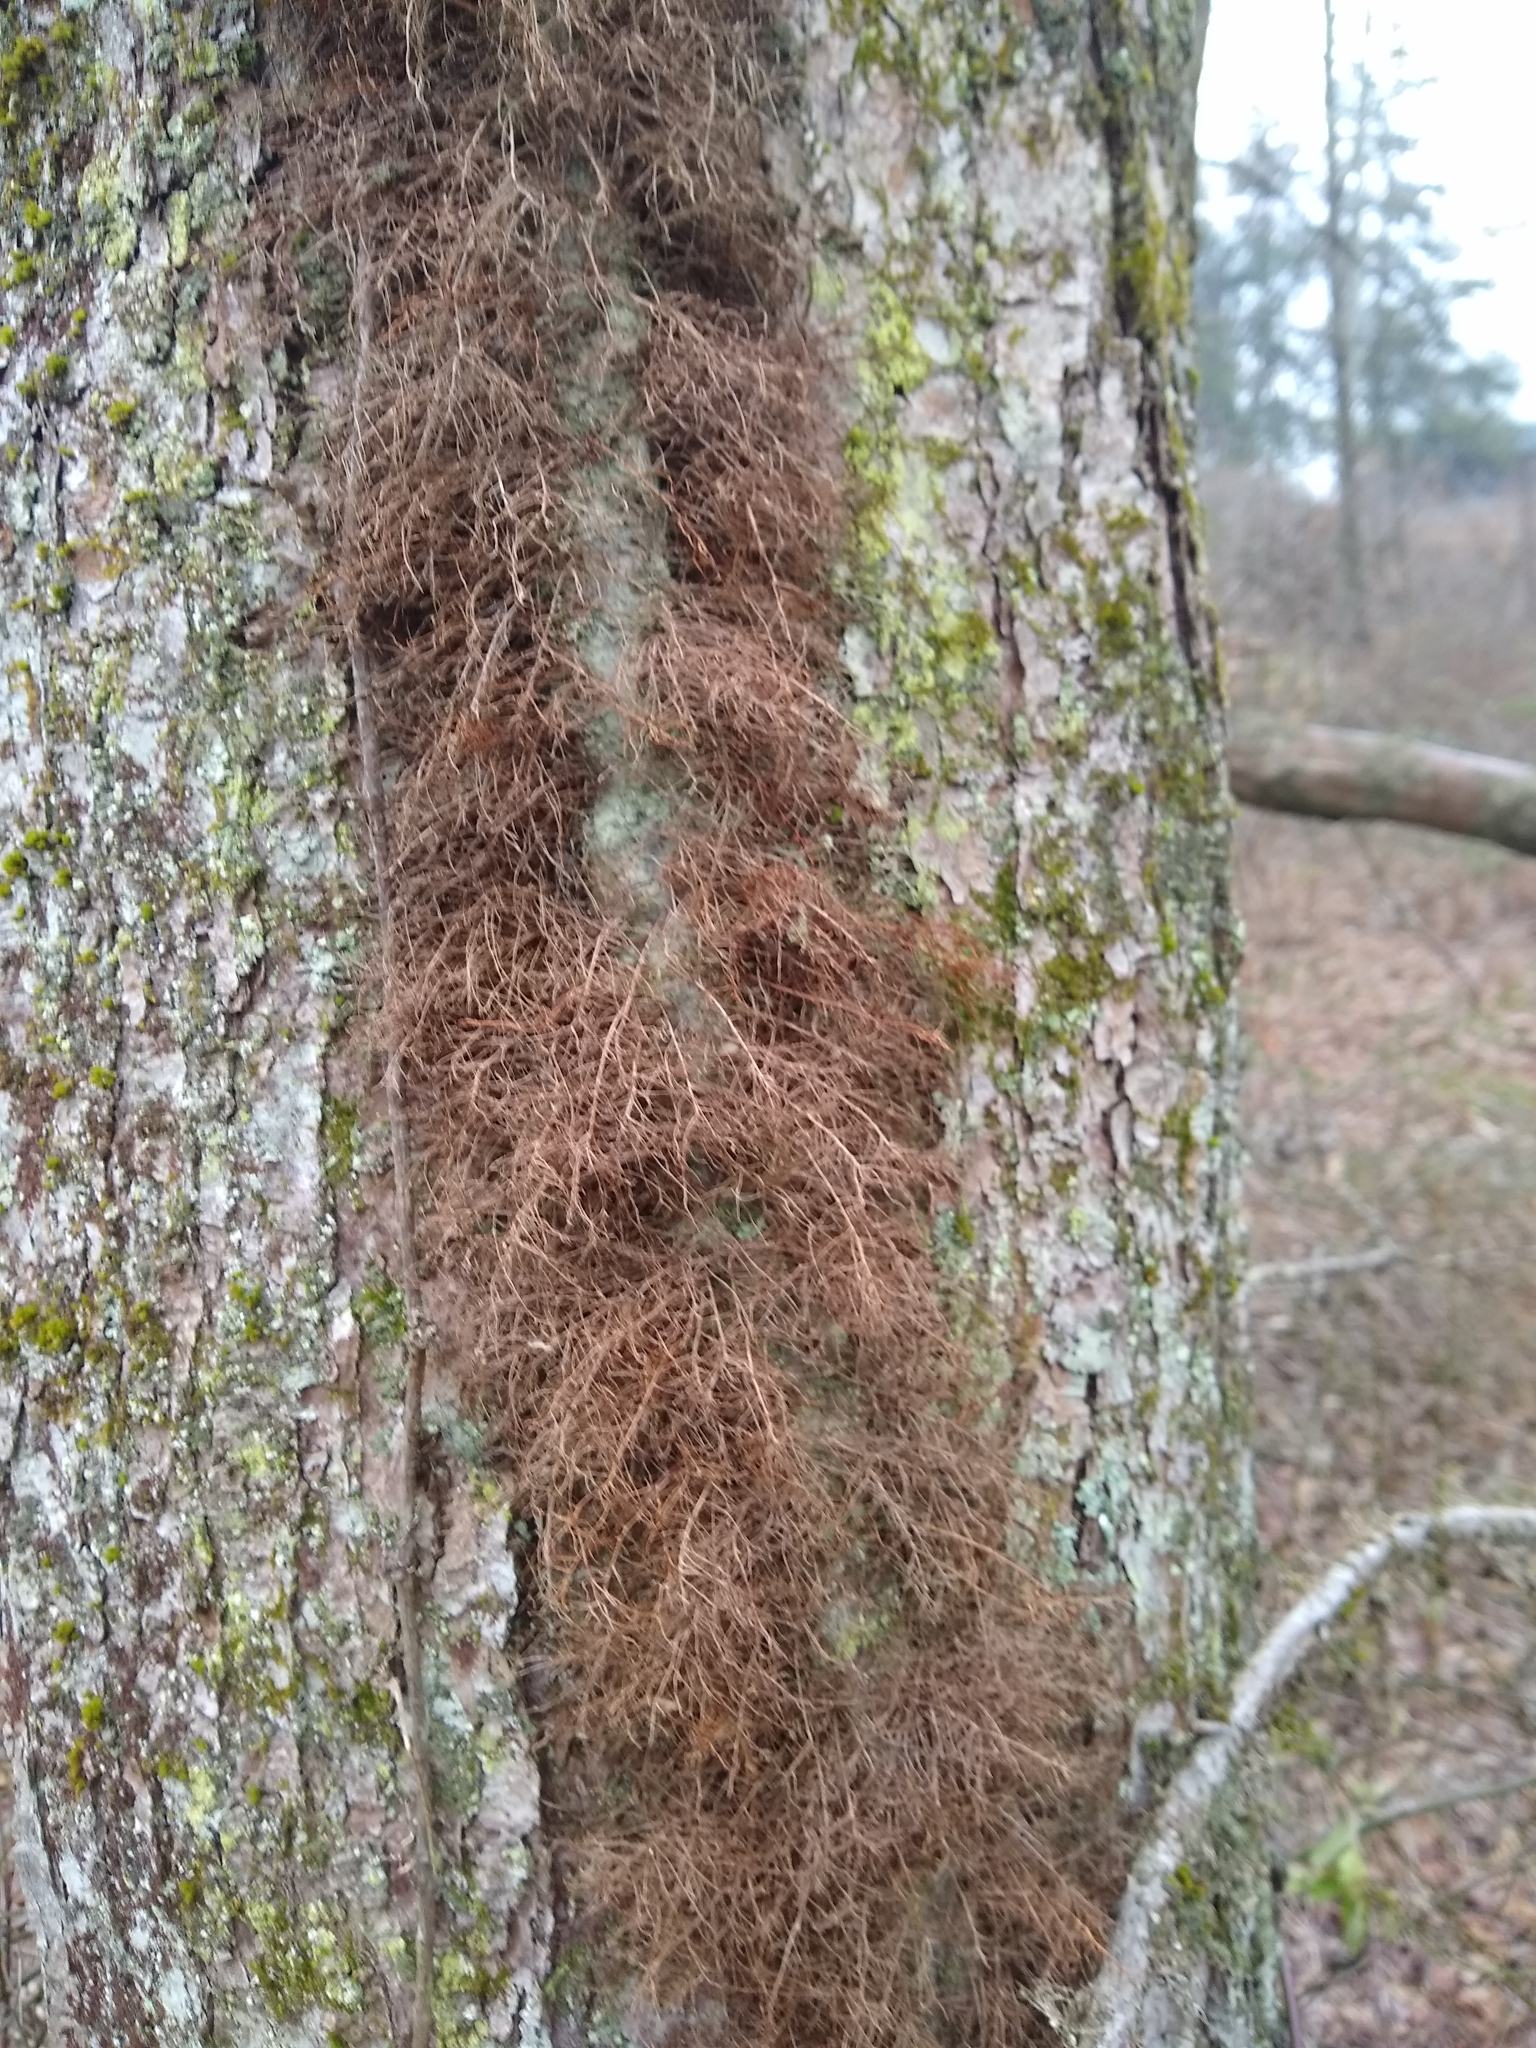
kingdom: Plantae
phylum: Tracheophyta
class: Magnoliopsida
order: Sapindales
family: Anacardiaceae
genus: Toxicodendron
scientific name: Toxicodendron radicans
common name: Poison ivy
